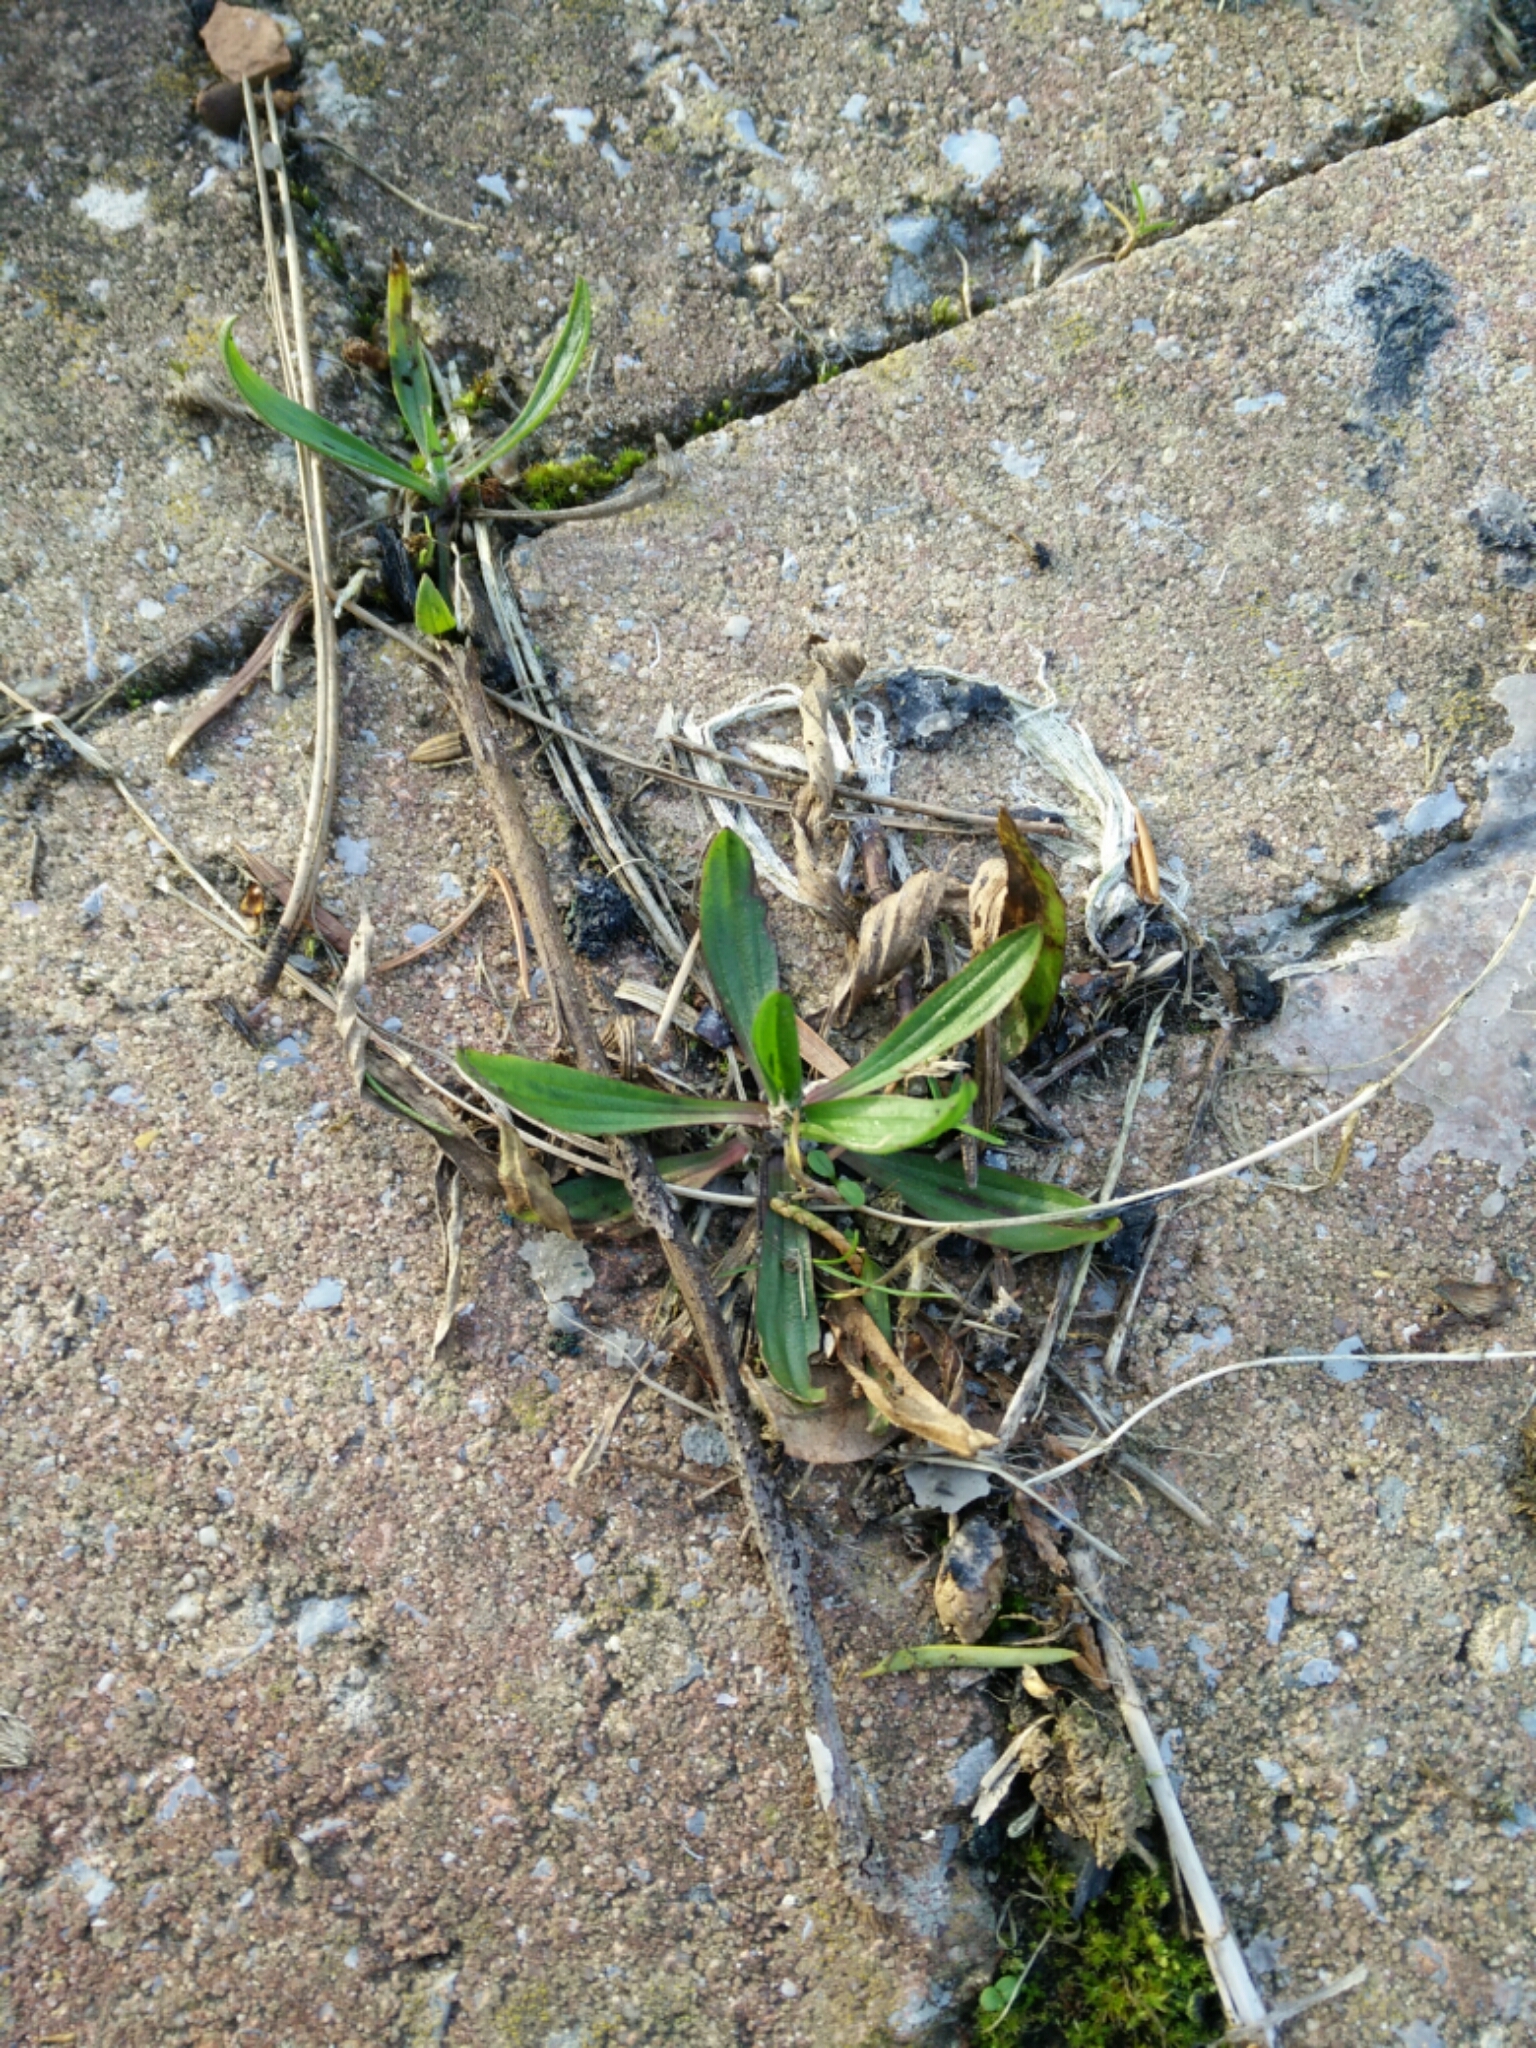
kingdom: Plantae
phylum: Tracheophyta
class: Magnoliopsida
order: Lamiales
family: Plantaginaceae
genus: Plantago
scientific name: Plantago lanceolata
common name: Ribwort plantain
